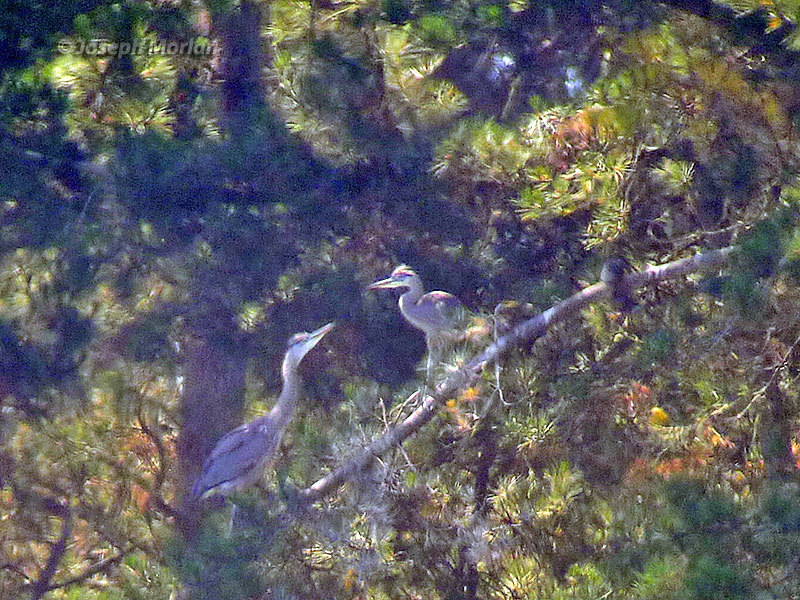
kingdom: Animalia
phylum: Chordata
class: Aves
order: Pelecaniformes
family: Ardeidae
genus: Ardea
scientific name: Ardea herodias
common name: Great blue heron
